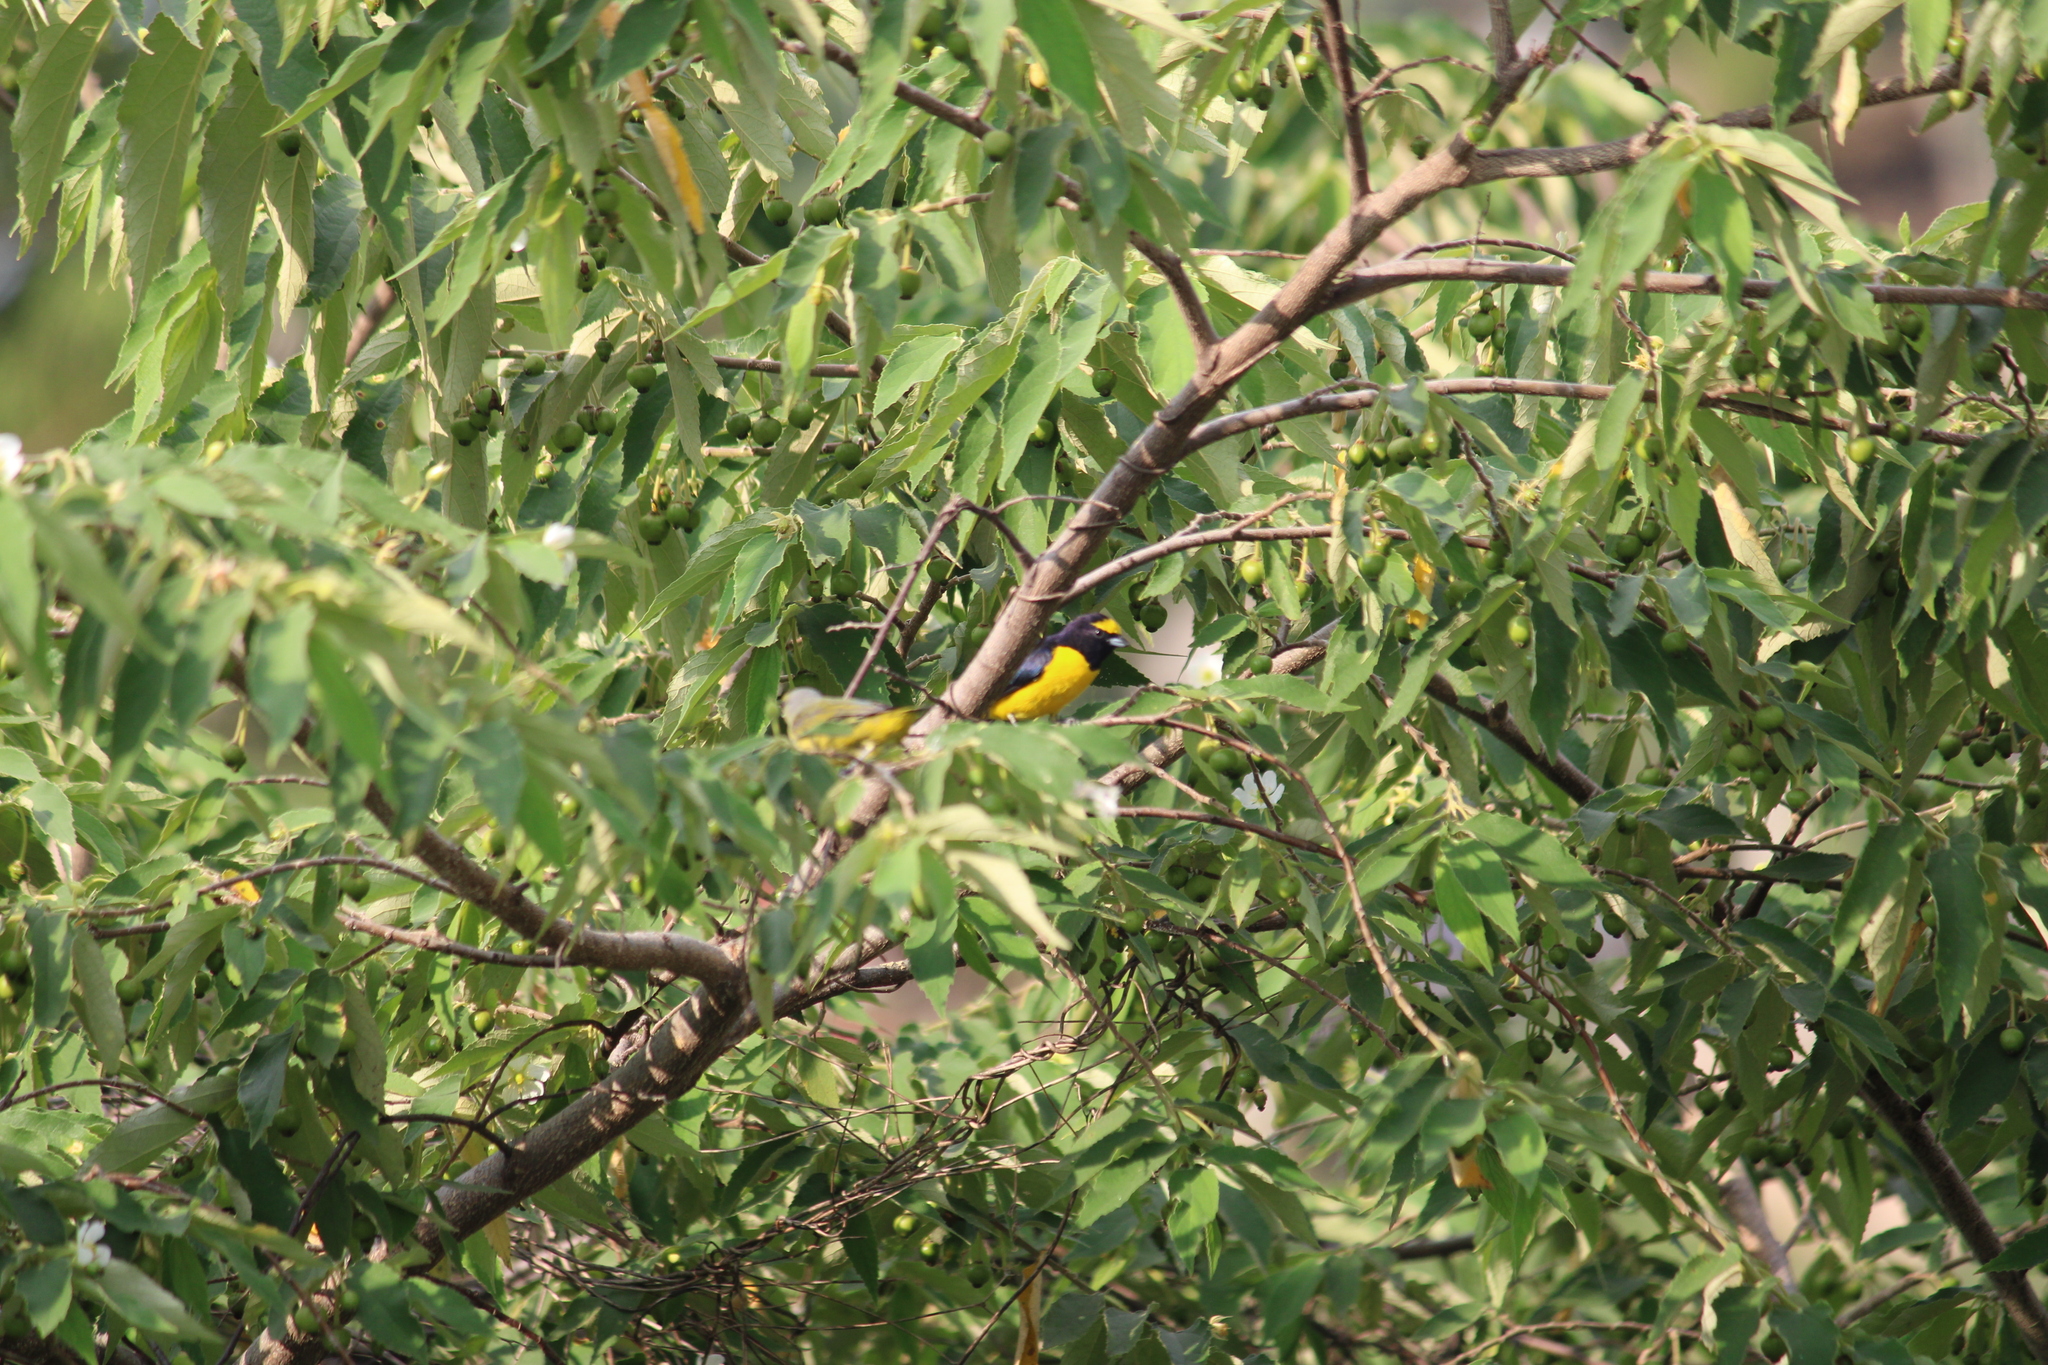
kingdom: Animalia
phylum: Chordata
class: Aves
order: Passeriformes
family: Fringillidae
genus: Euphonia
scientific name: Euphonia affinis
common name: Scrub euphonia
